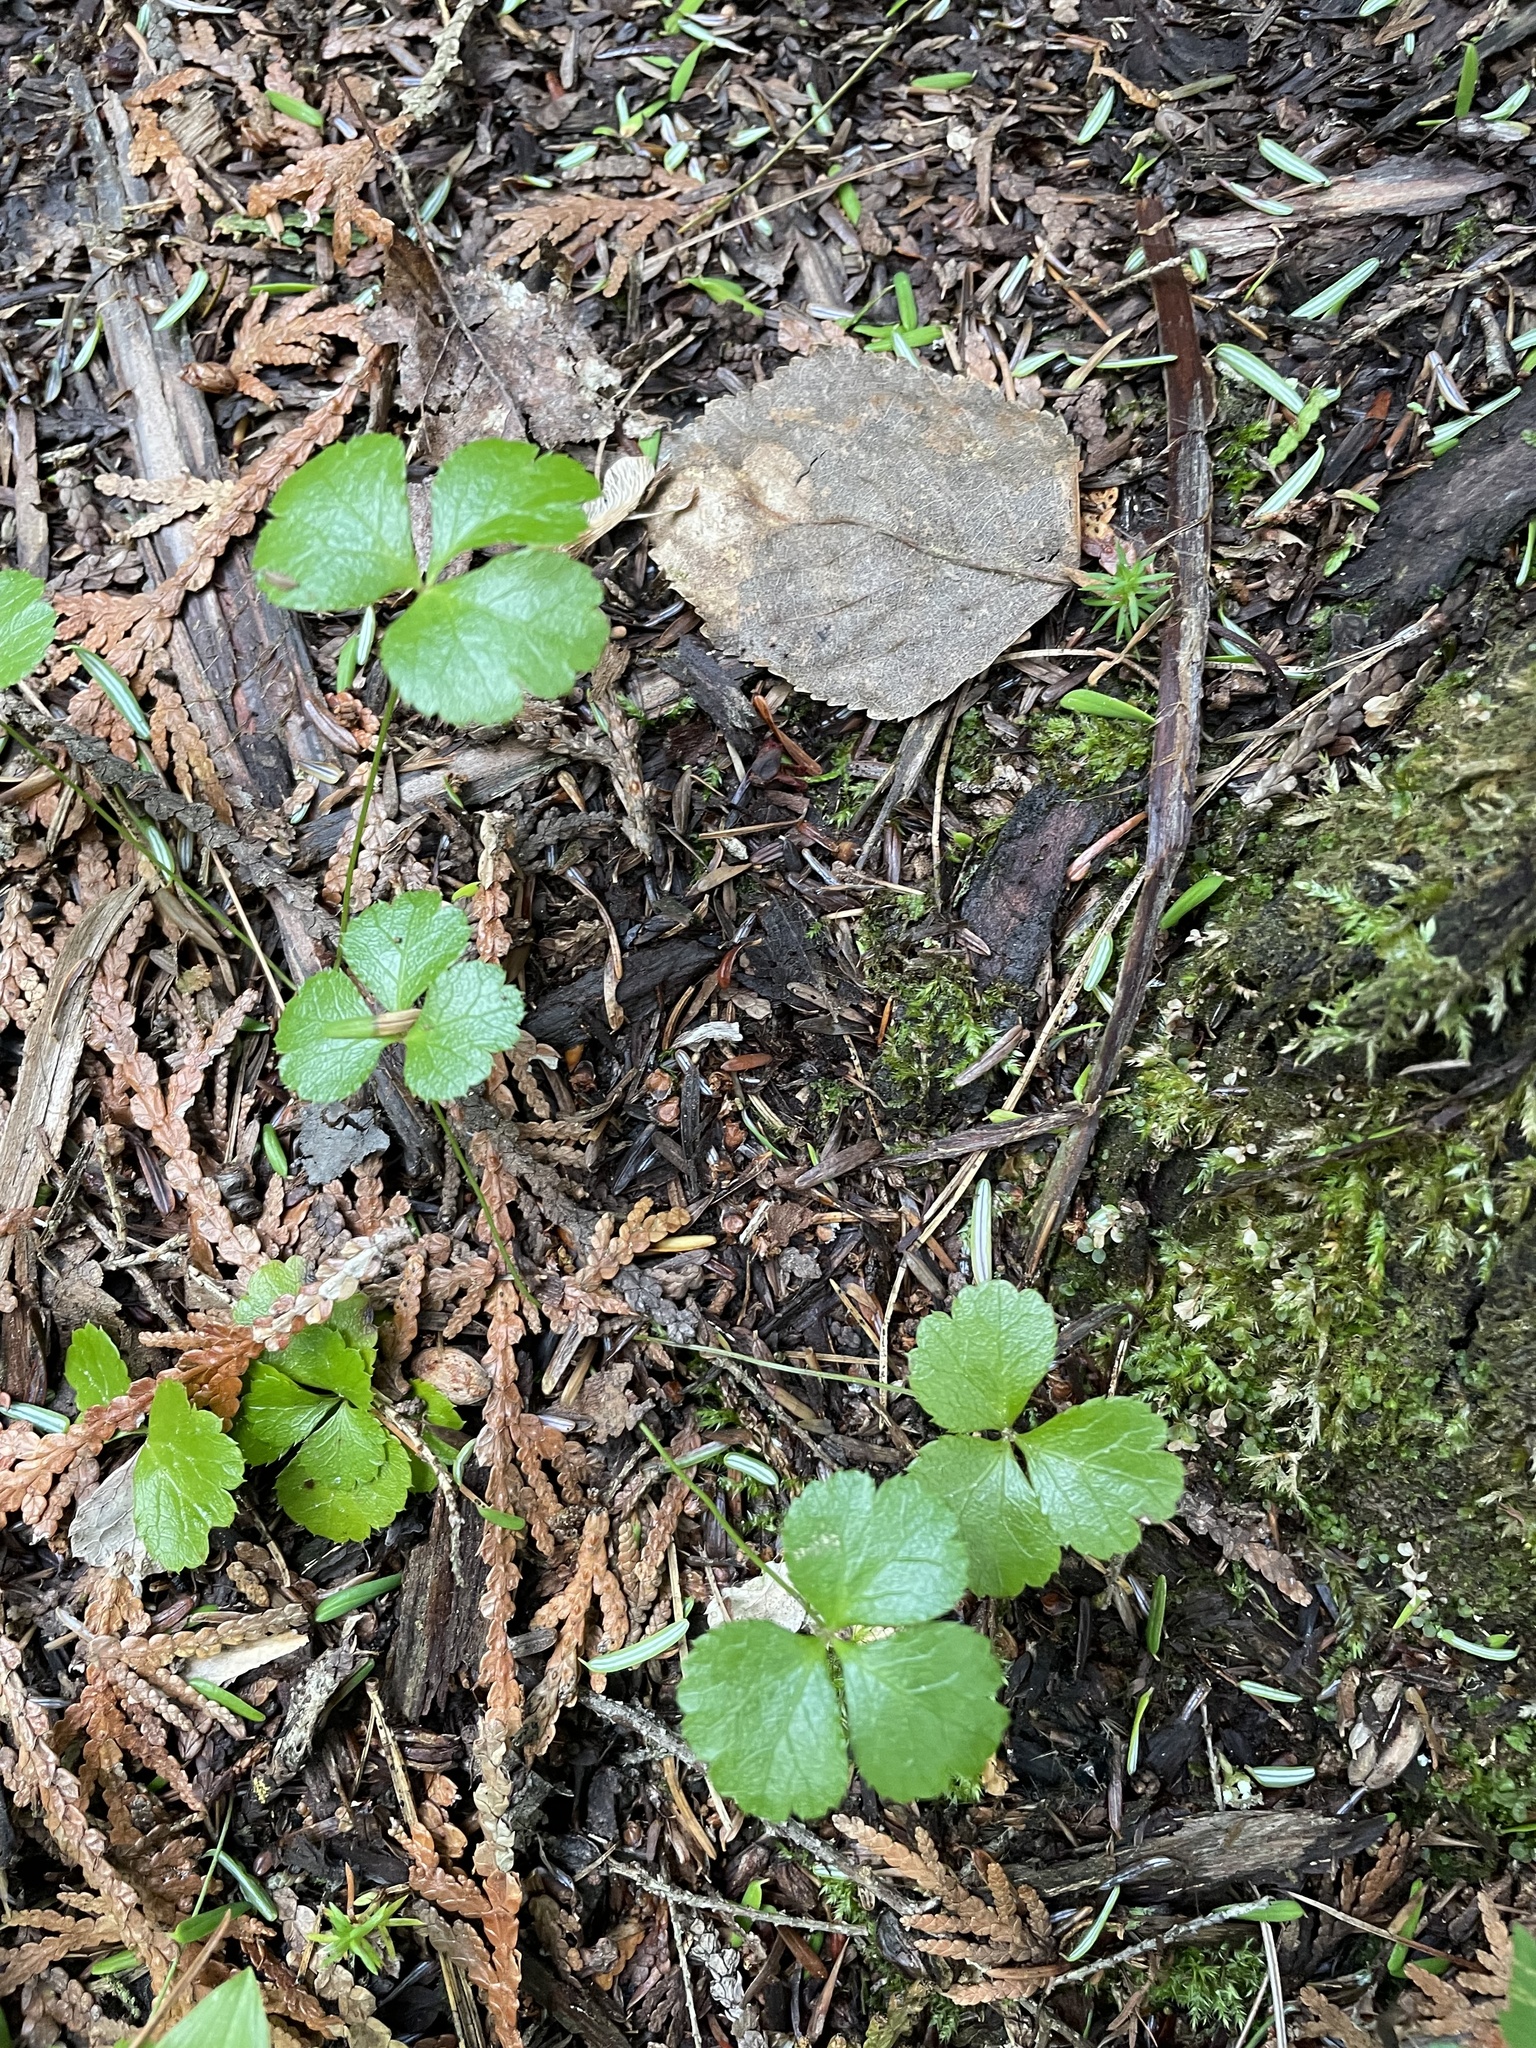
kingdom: Plantae
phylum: Tracheophyta
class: Magnoliopsida
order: Ranunculales
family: Ranunculaceae
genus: Coptis
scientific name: Coptis trifolia
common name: Canker-root
